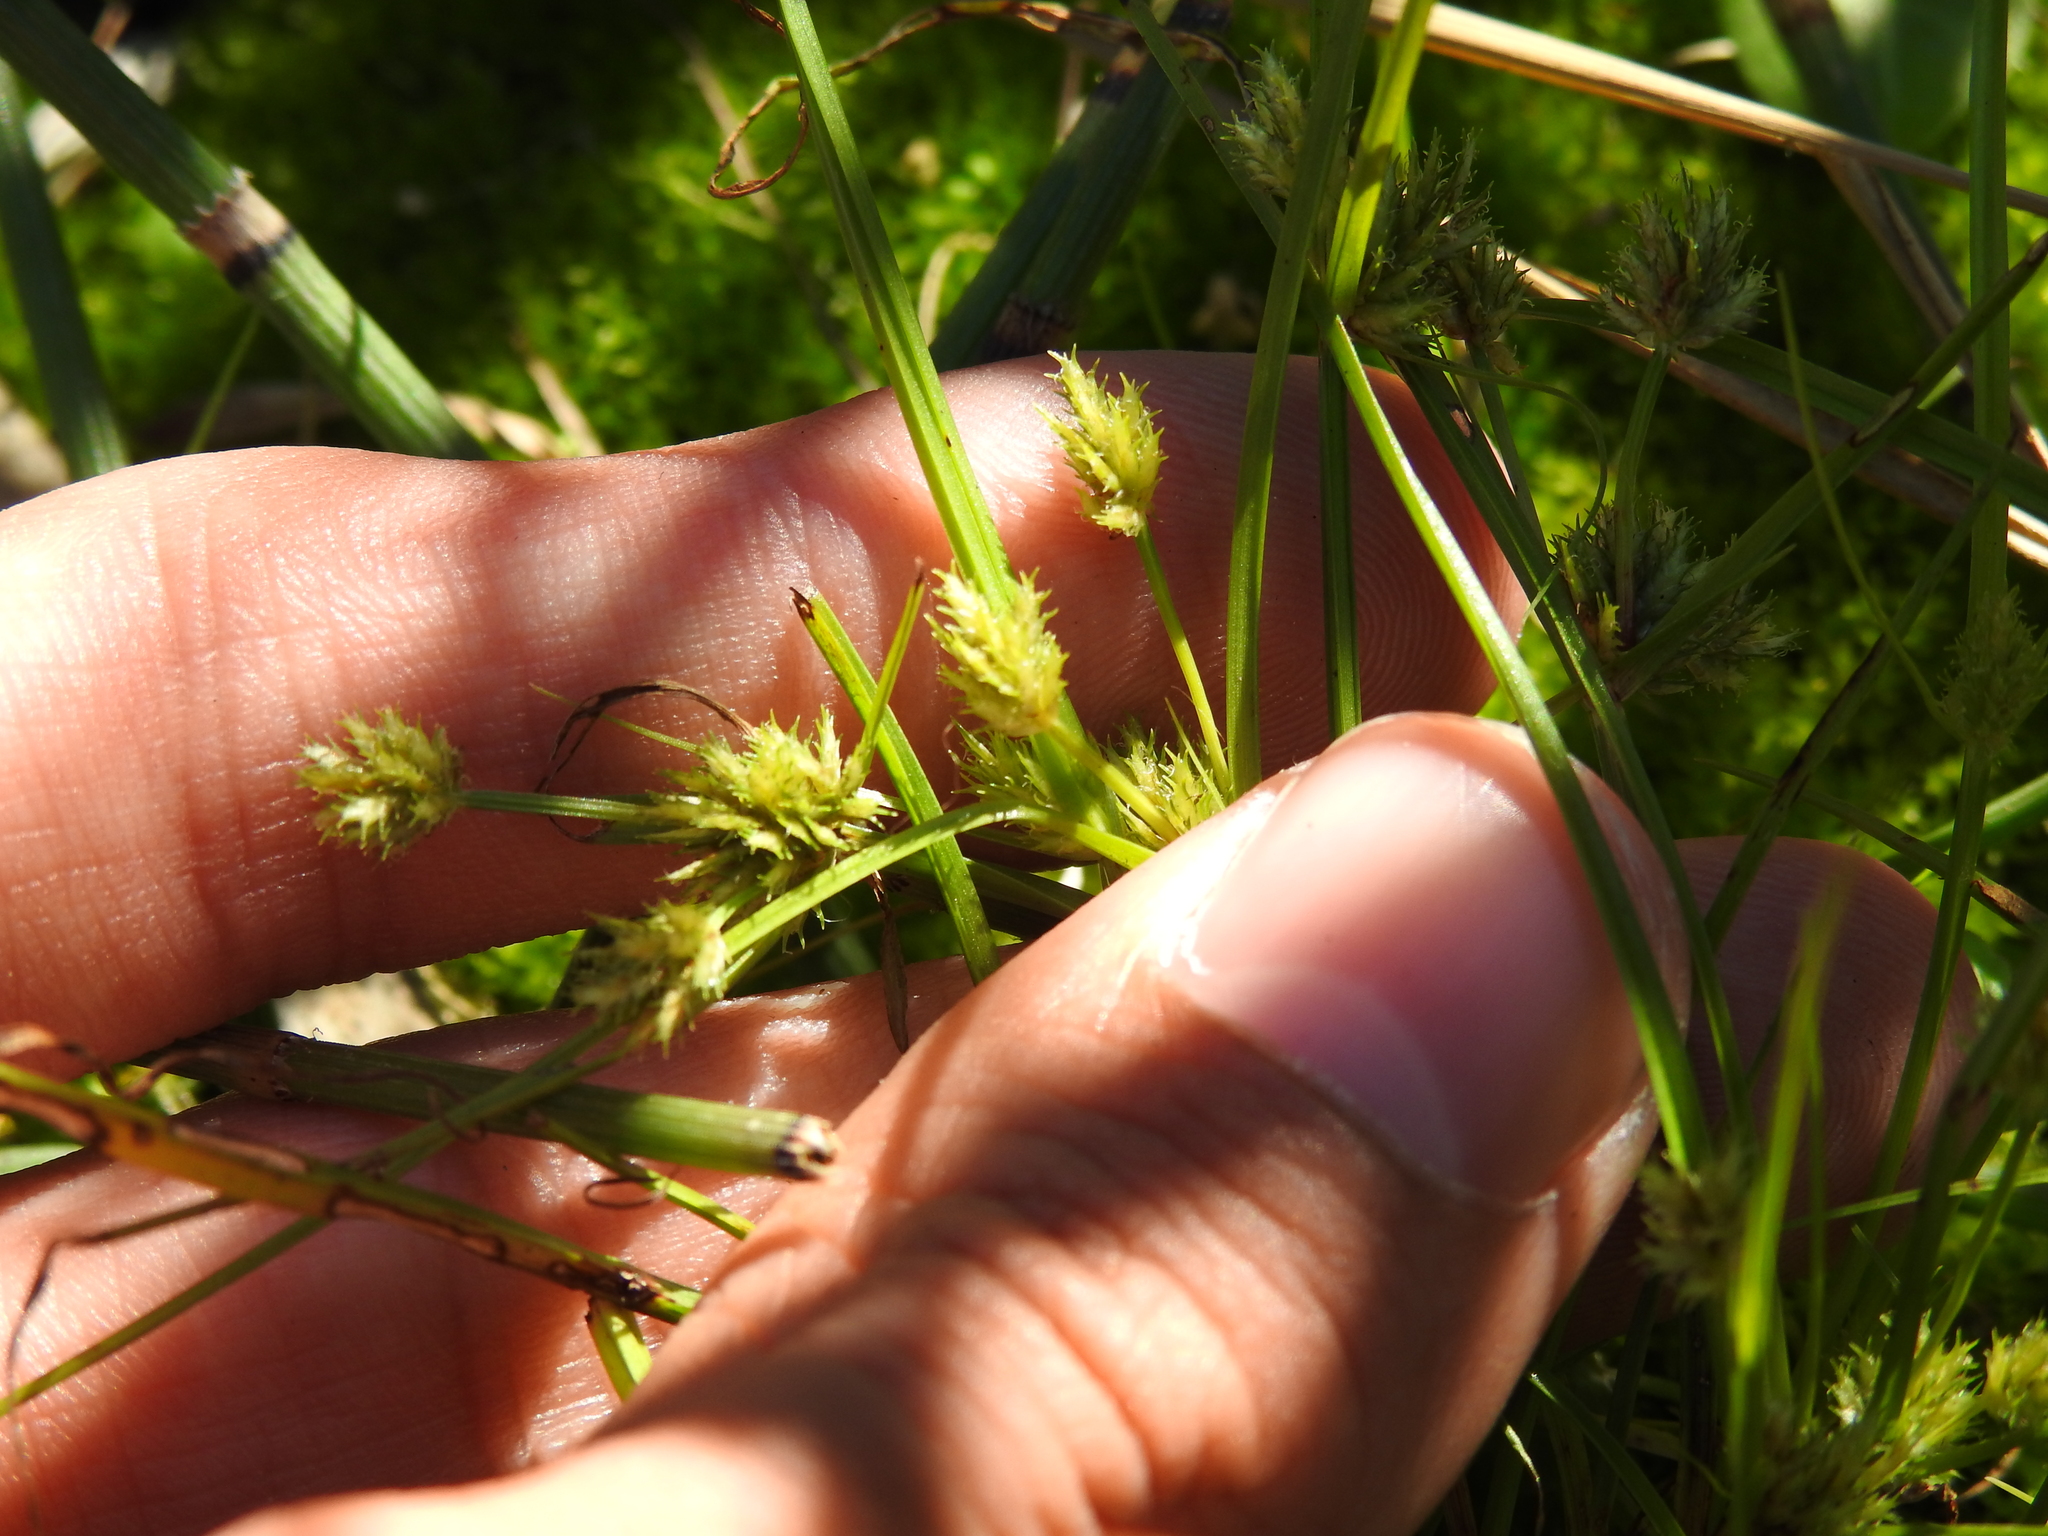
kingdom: Plantae
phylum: Tracheophyta
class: Liliopsida
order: Poales
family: Cyperaceae
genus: Cyperus
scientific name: Cyperus squarrosus
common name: Awned cyperus
